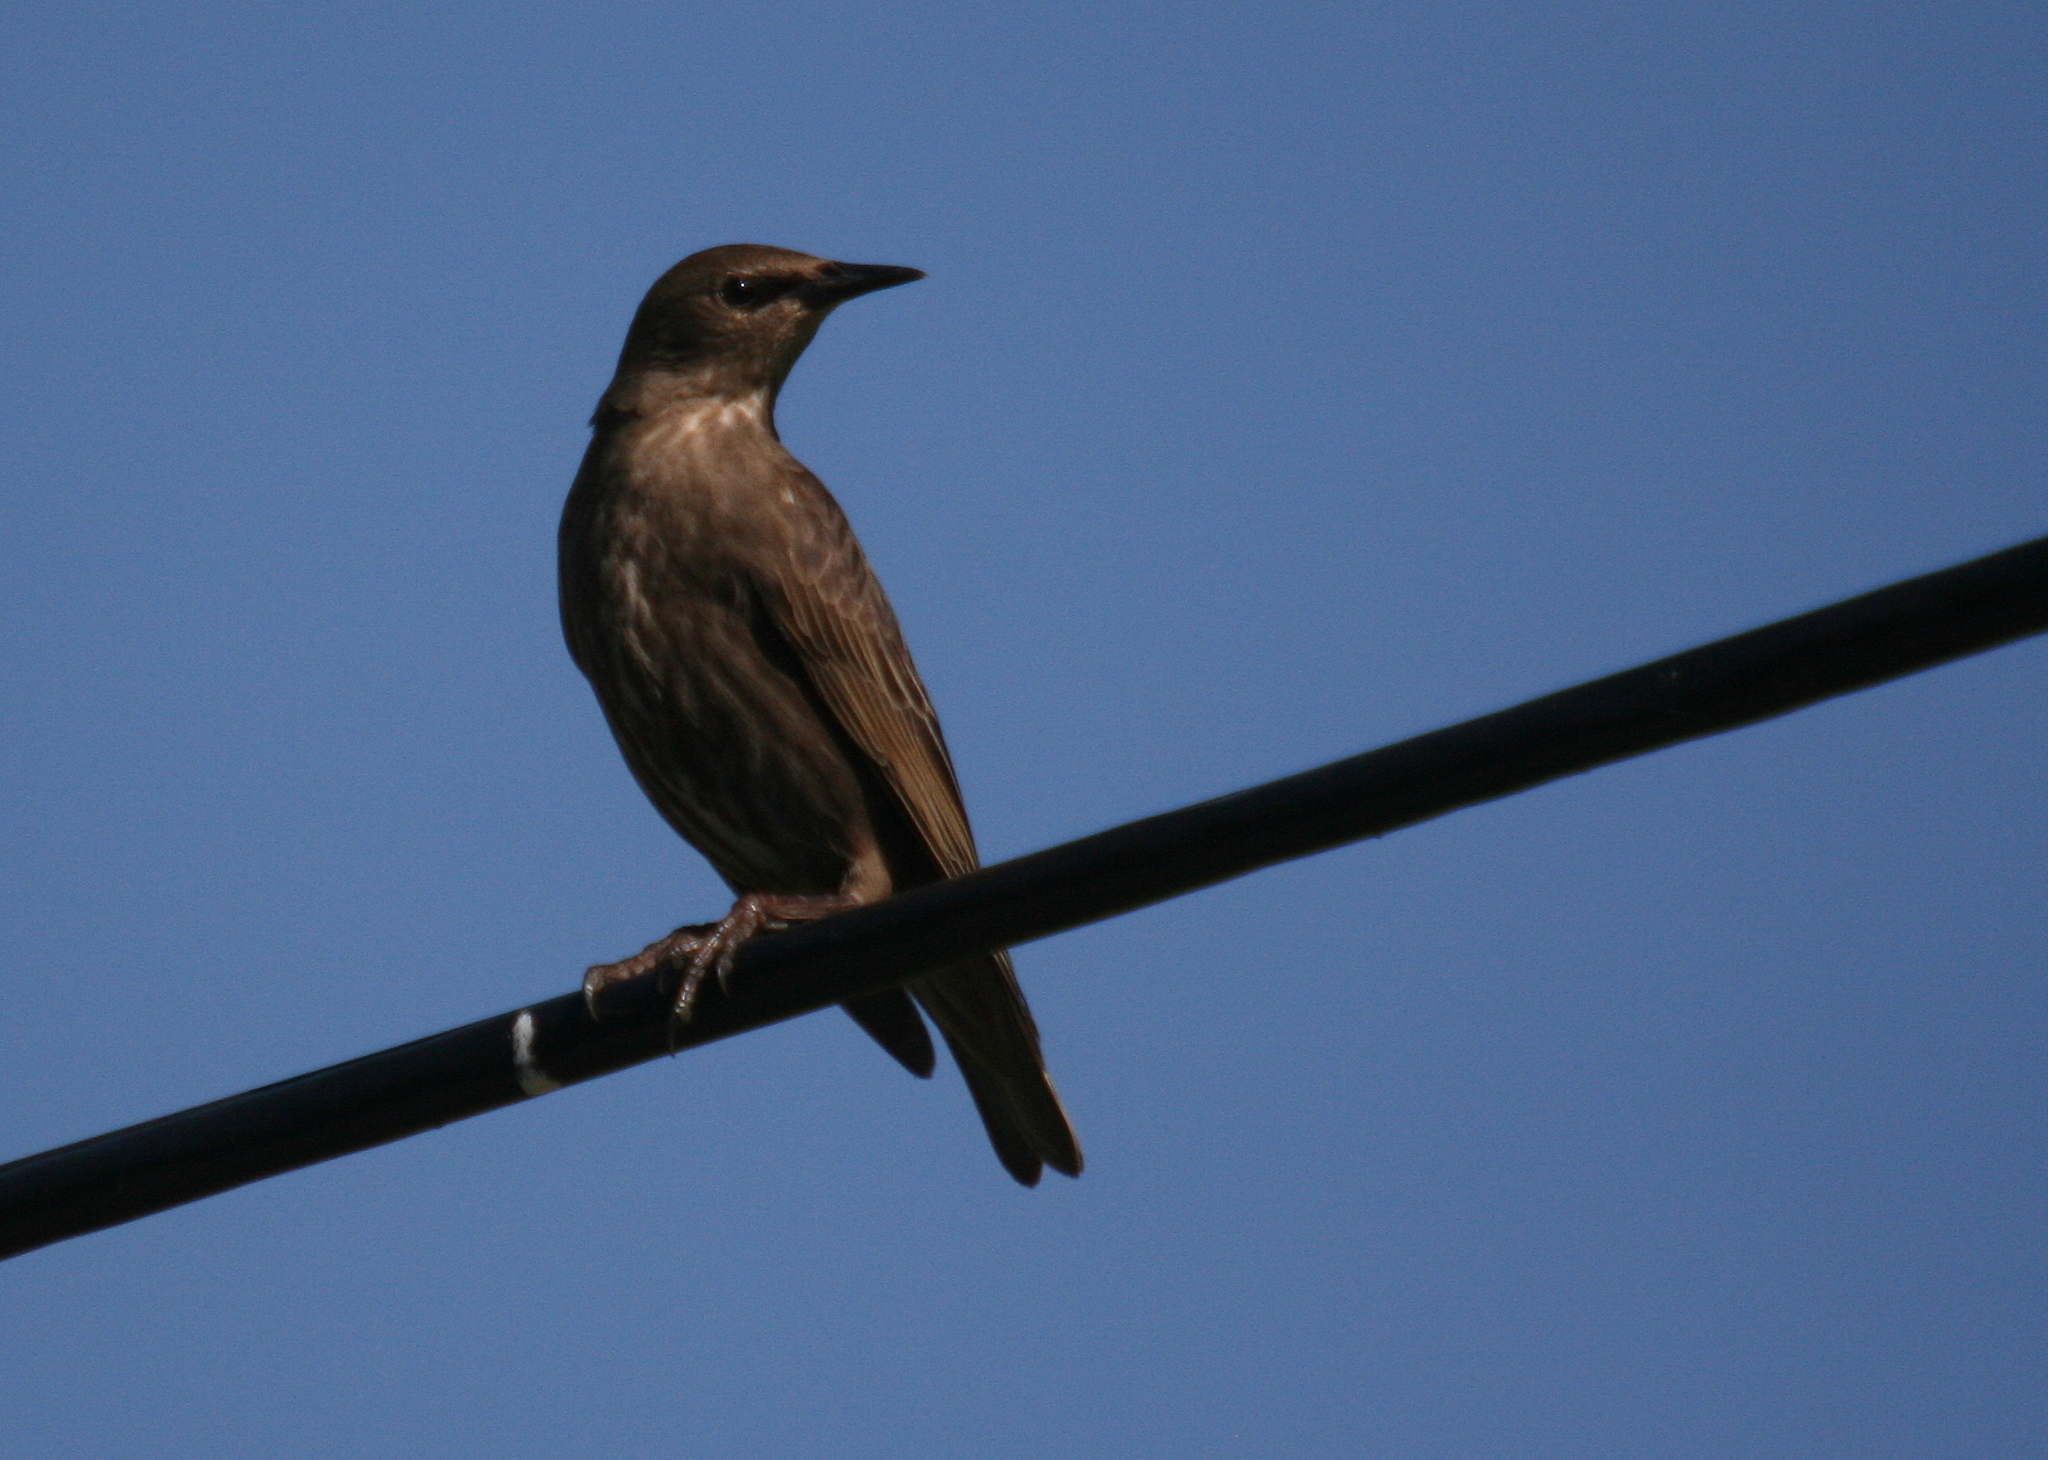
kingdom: Animalia
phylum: Chordata
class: Aves
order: Passeriformes
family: Sturnidae
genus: Sturnus
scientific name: Sturnus vulgaris
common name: Common starling
